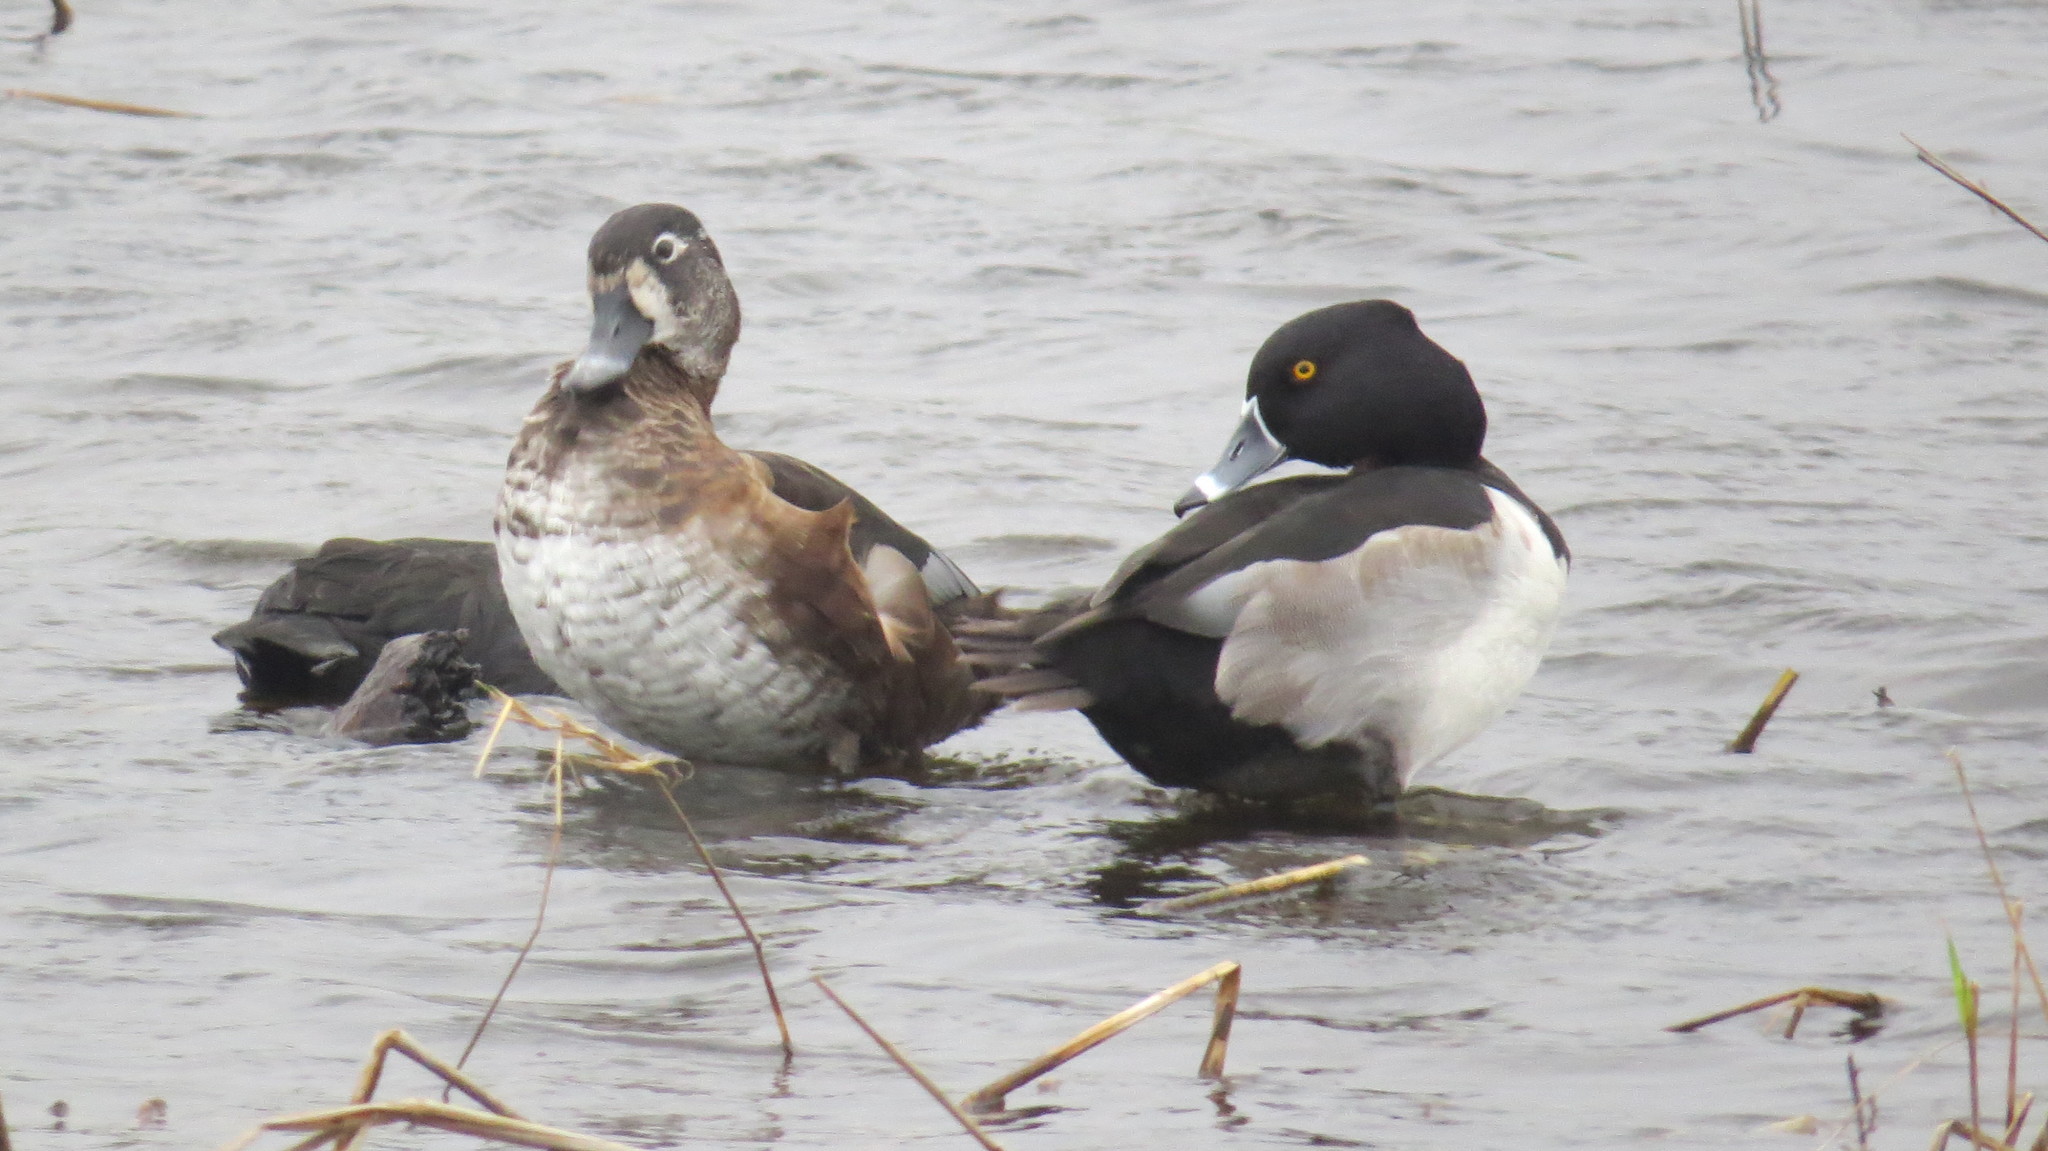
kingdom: Animalia
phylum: Chordata
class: Aves
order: Anseriformes
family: Anatidae
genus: Aythya
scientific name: Aythya collaris
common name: Ring-necked duck
